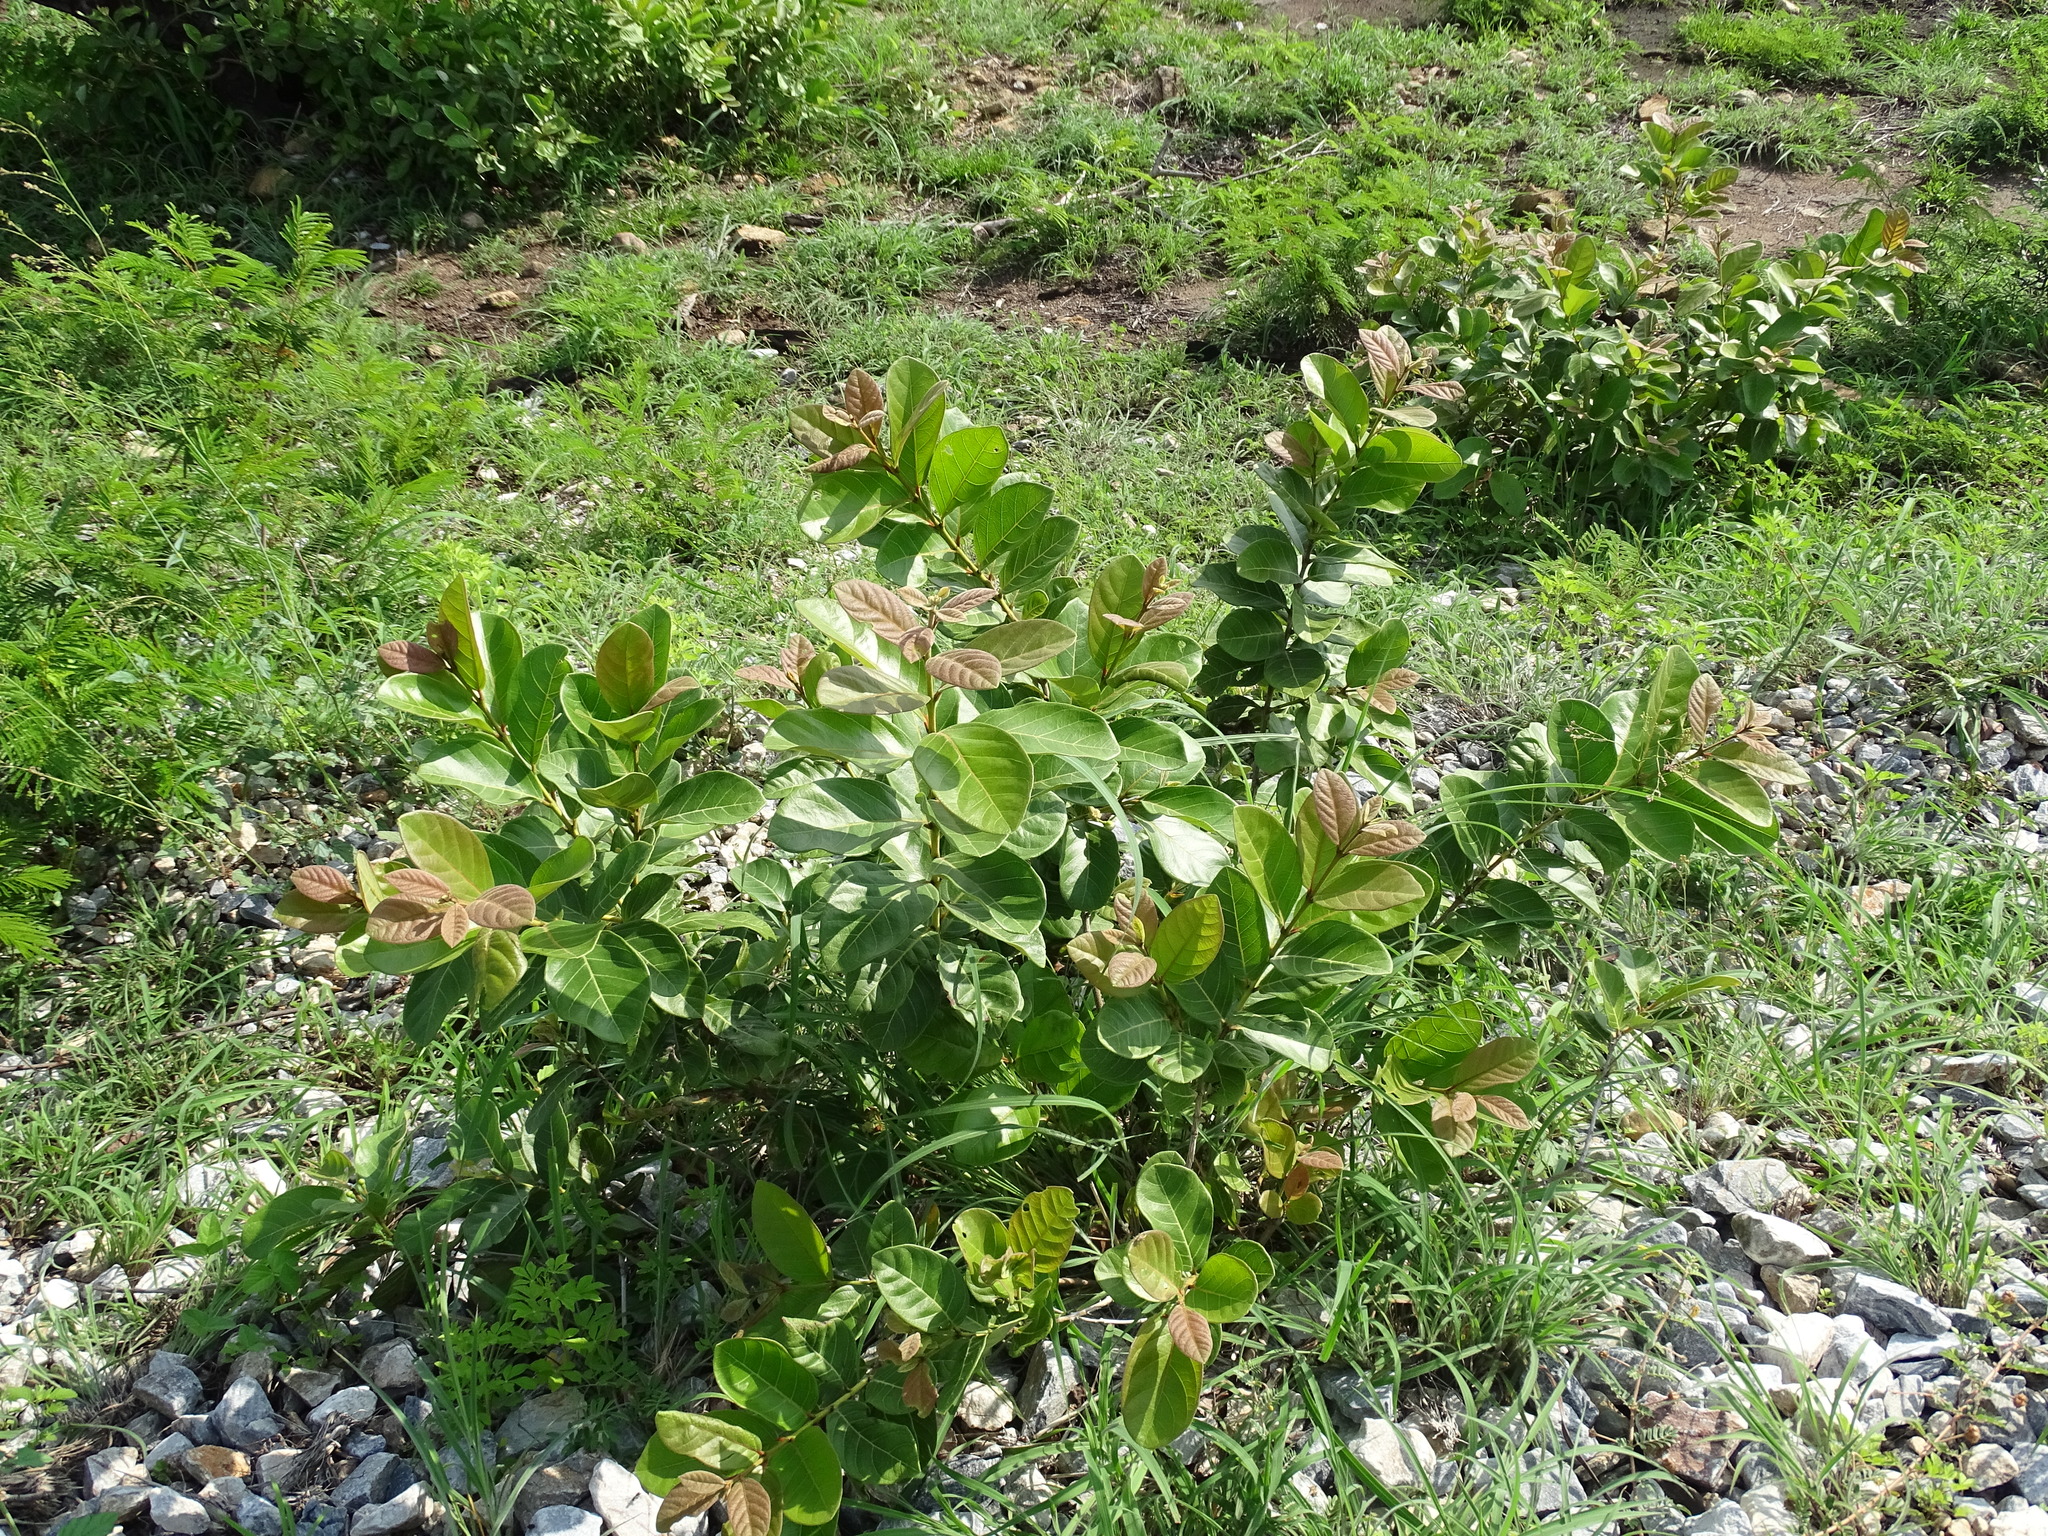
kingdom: Plantae
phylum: Tracheophyta
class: Magnoliopsida
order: Myrtales
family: Myrtaceae
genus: Psidium
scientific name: Psidium guineense
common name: Brazilian guava
